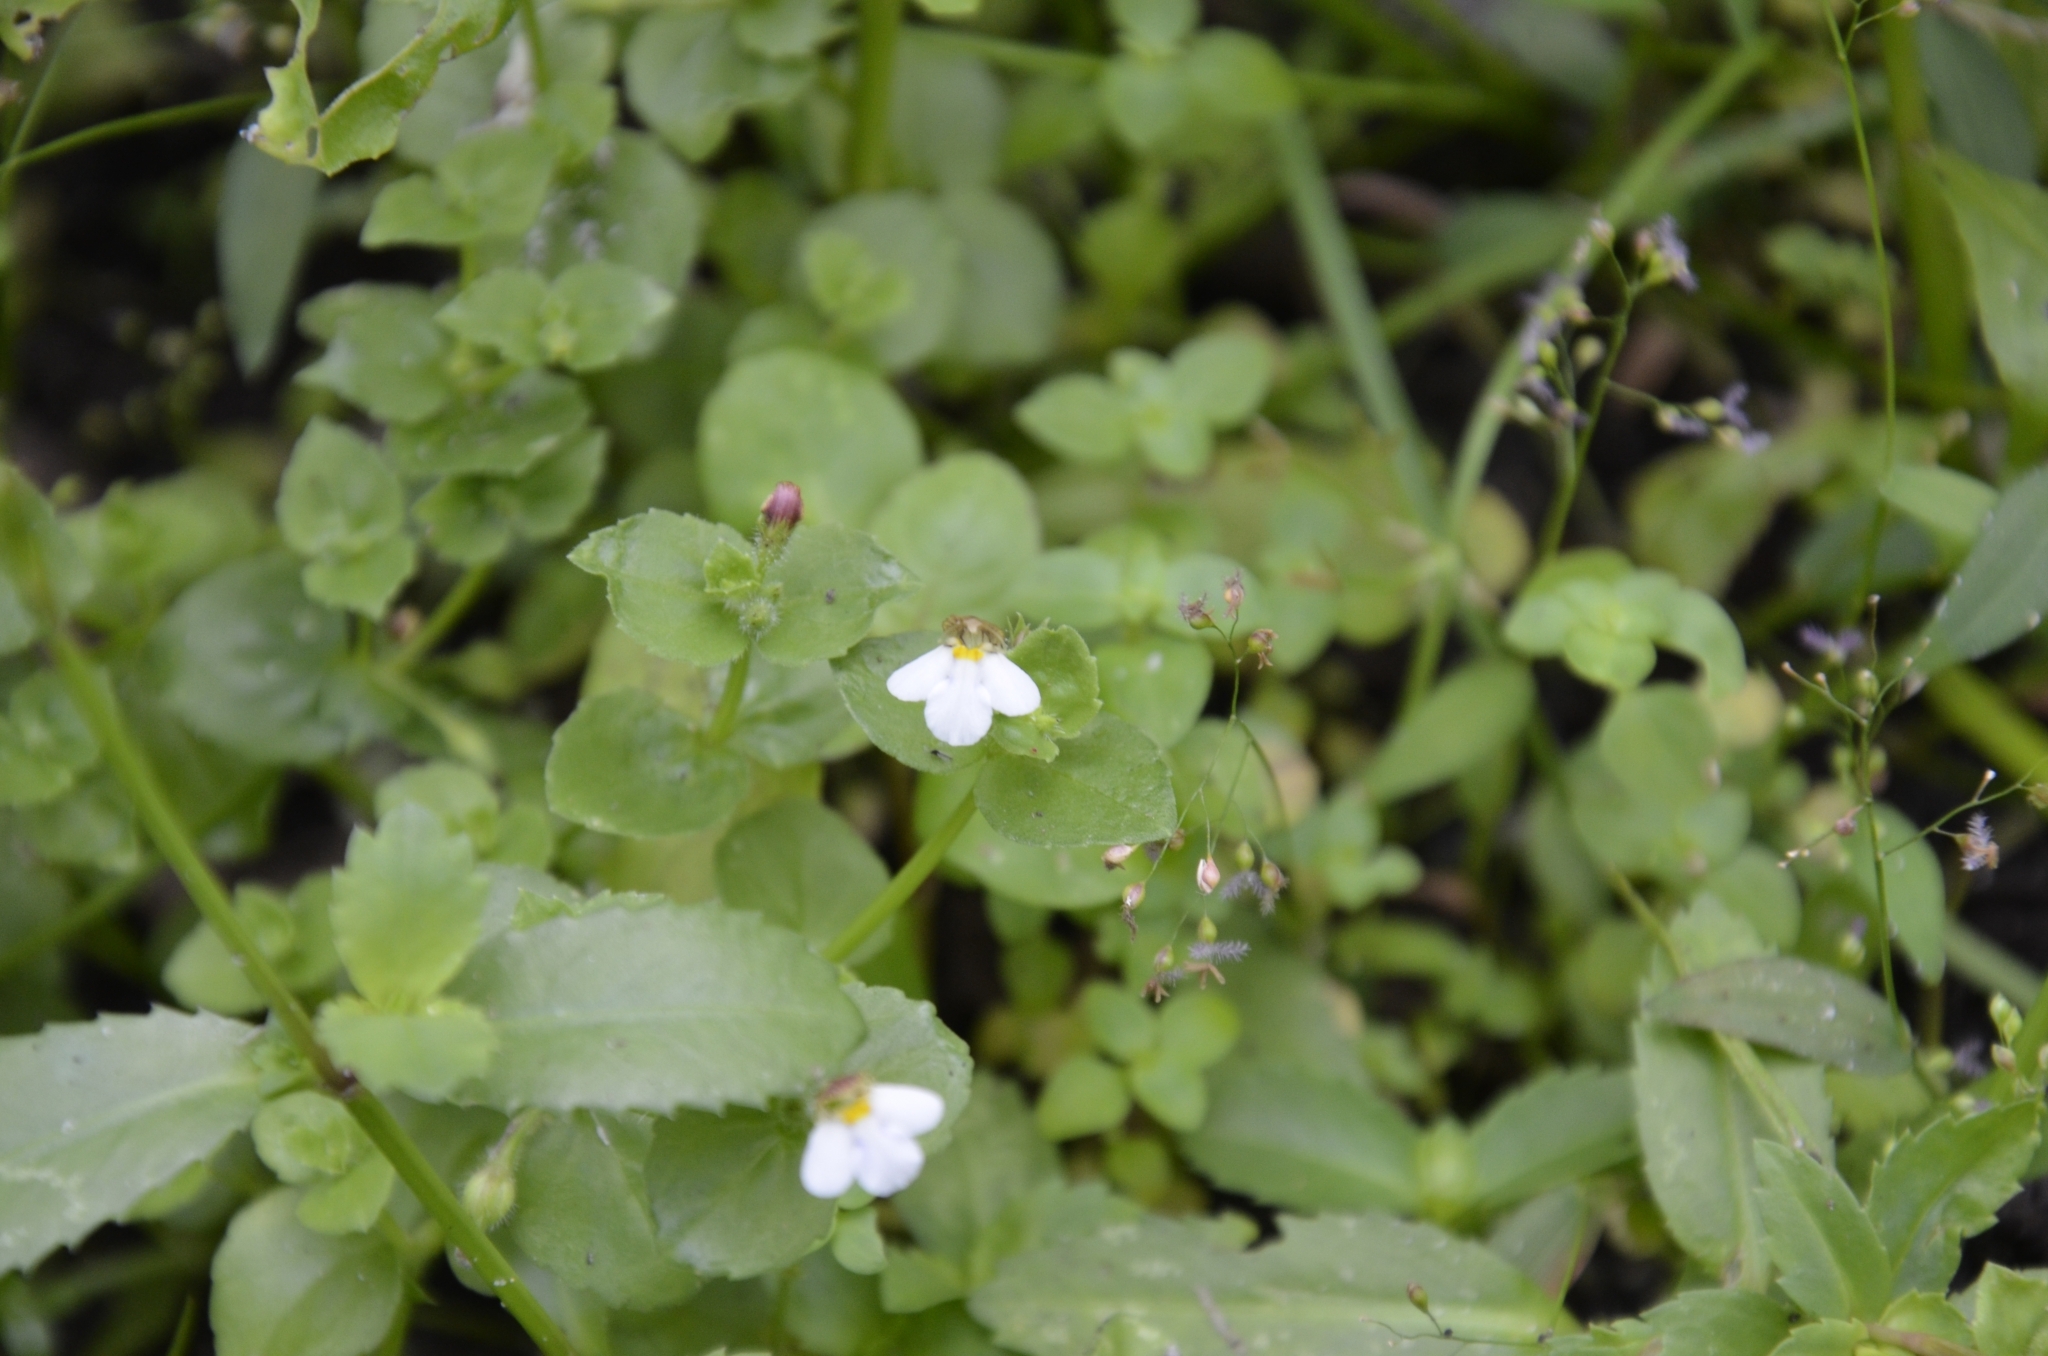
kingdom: Plantae
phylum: Tracheophyta
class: Magnoliopsida
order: Lamiales
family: Linderniaceae
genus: Yamazakia
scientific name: Yamazakia pusilla
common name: Tiny slitwort
